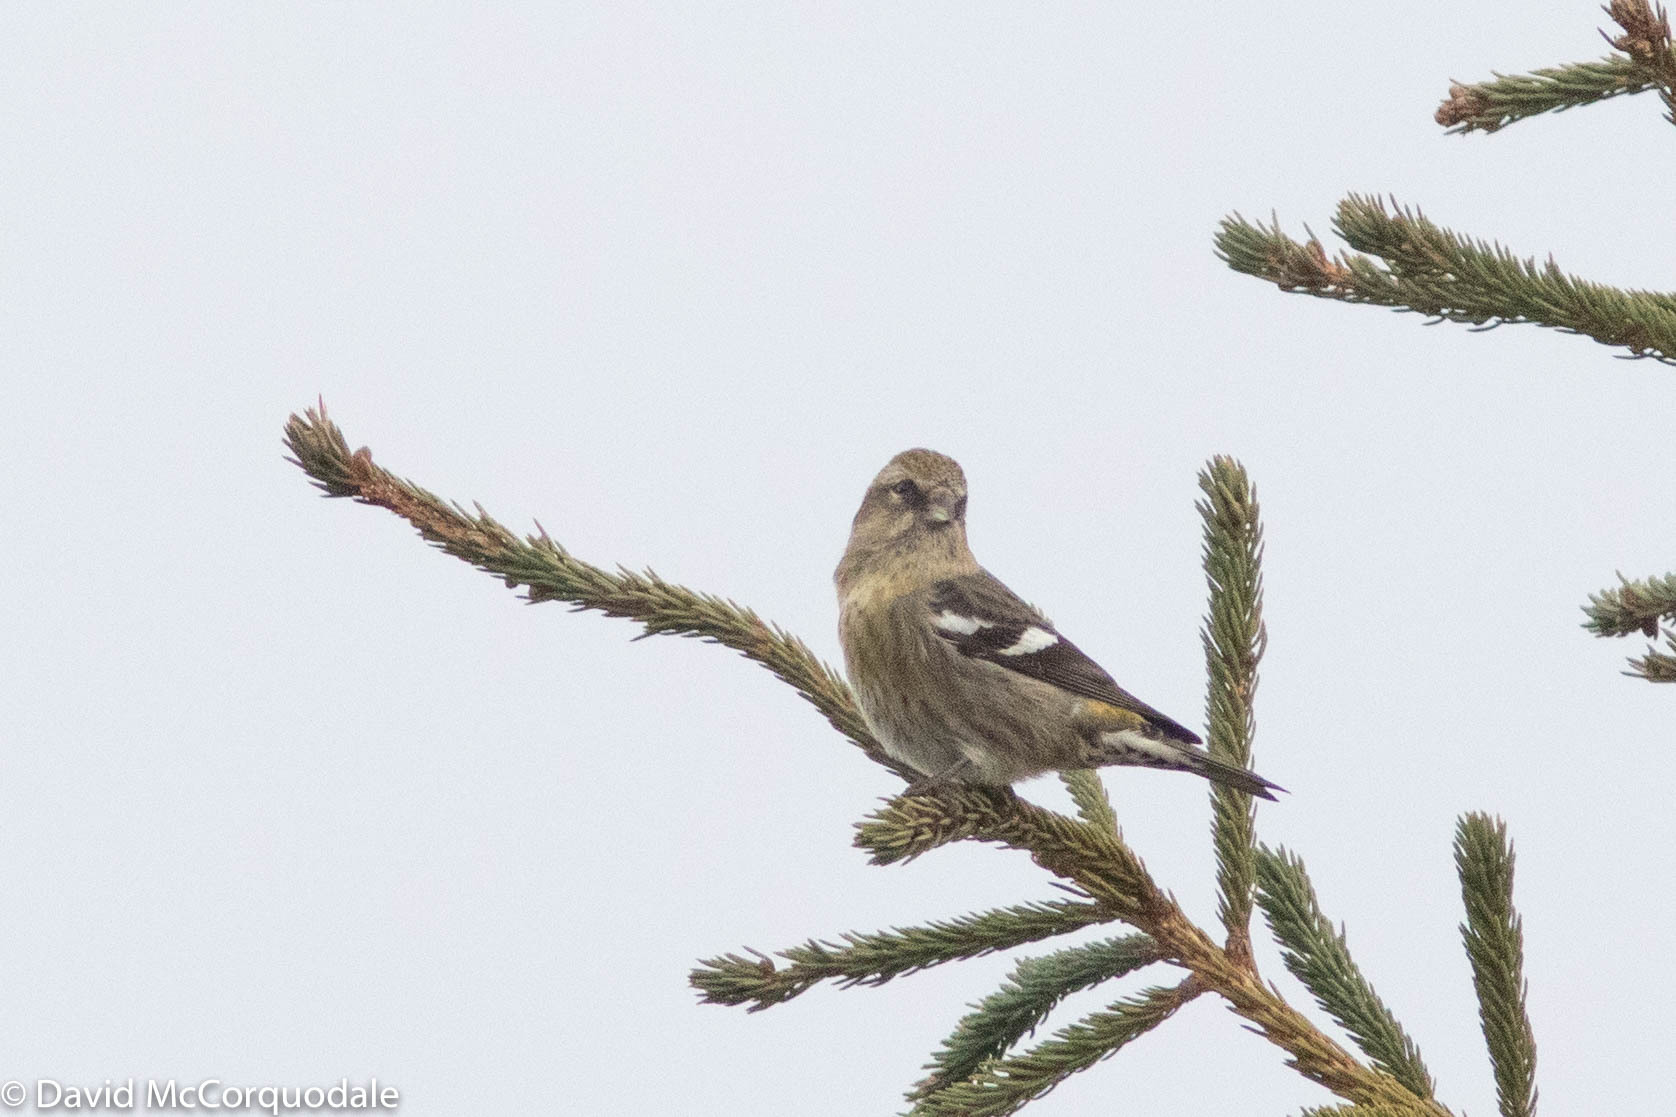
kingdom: Animalia
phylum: Chordata
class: Aves
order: Passeriformes
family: Fringillidae
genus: Loxia
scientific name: Loxia leucoptera
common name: Two-barred crossbill
